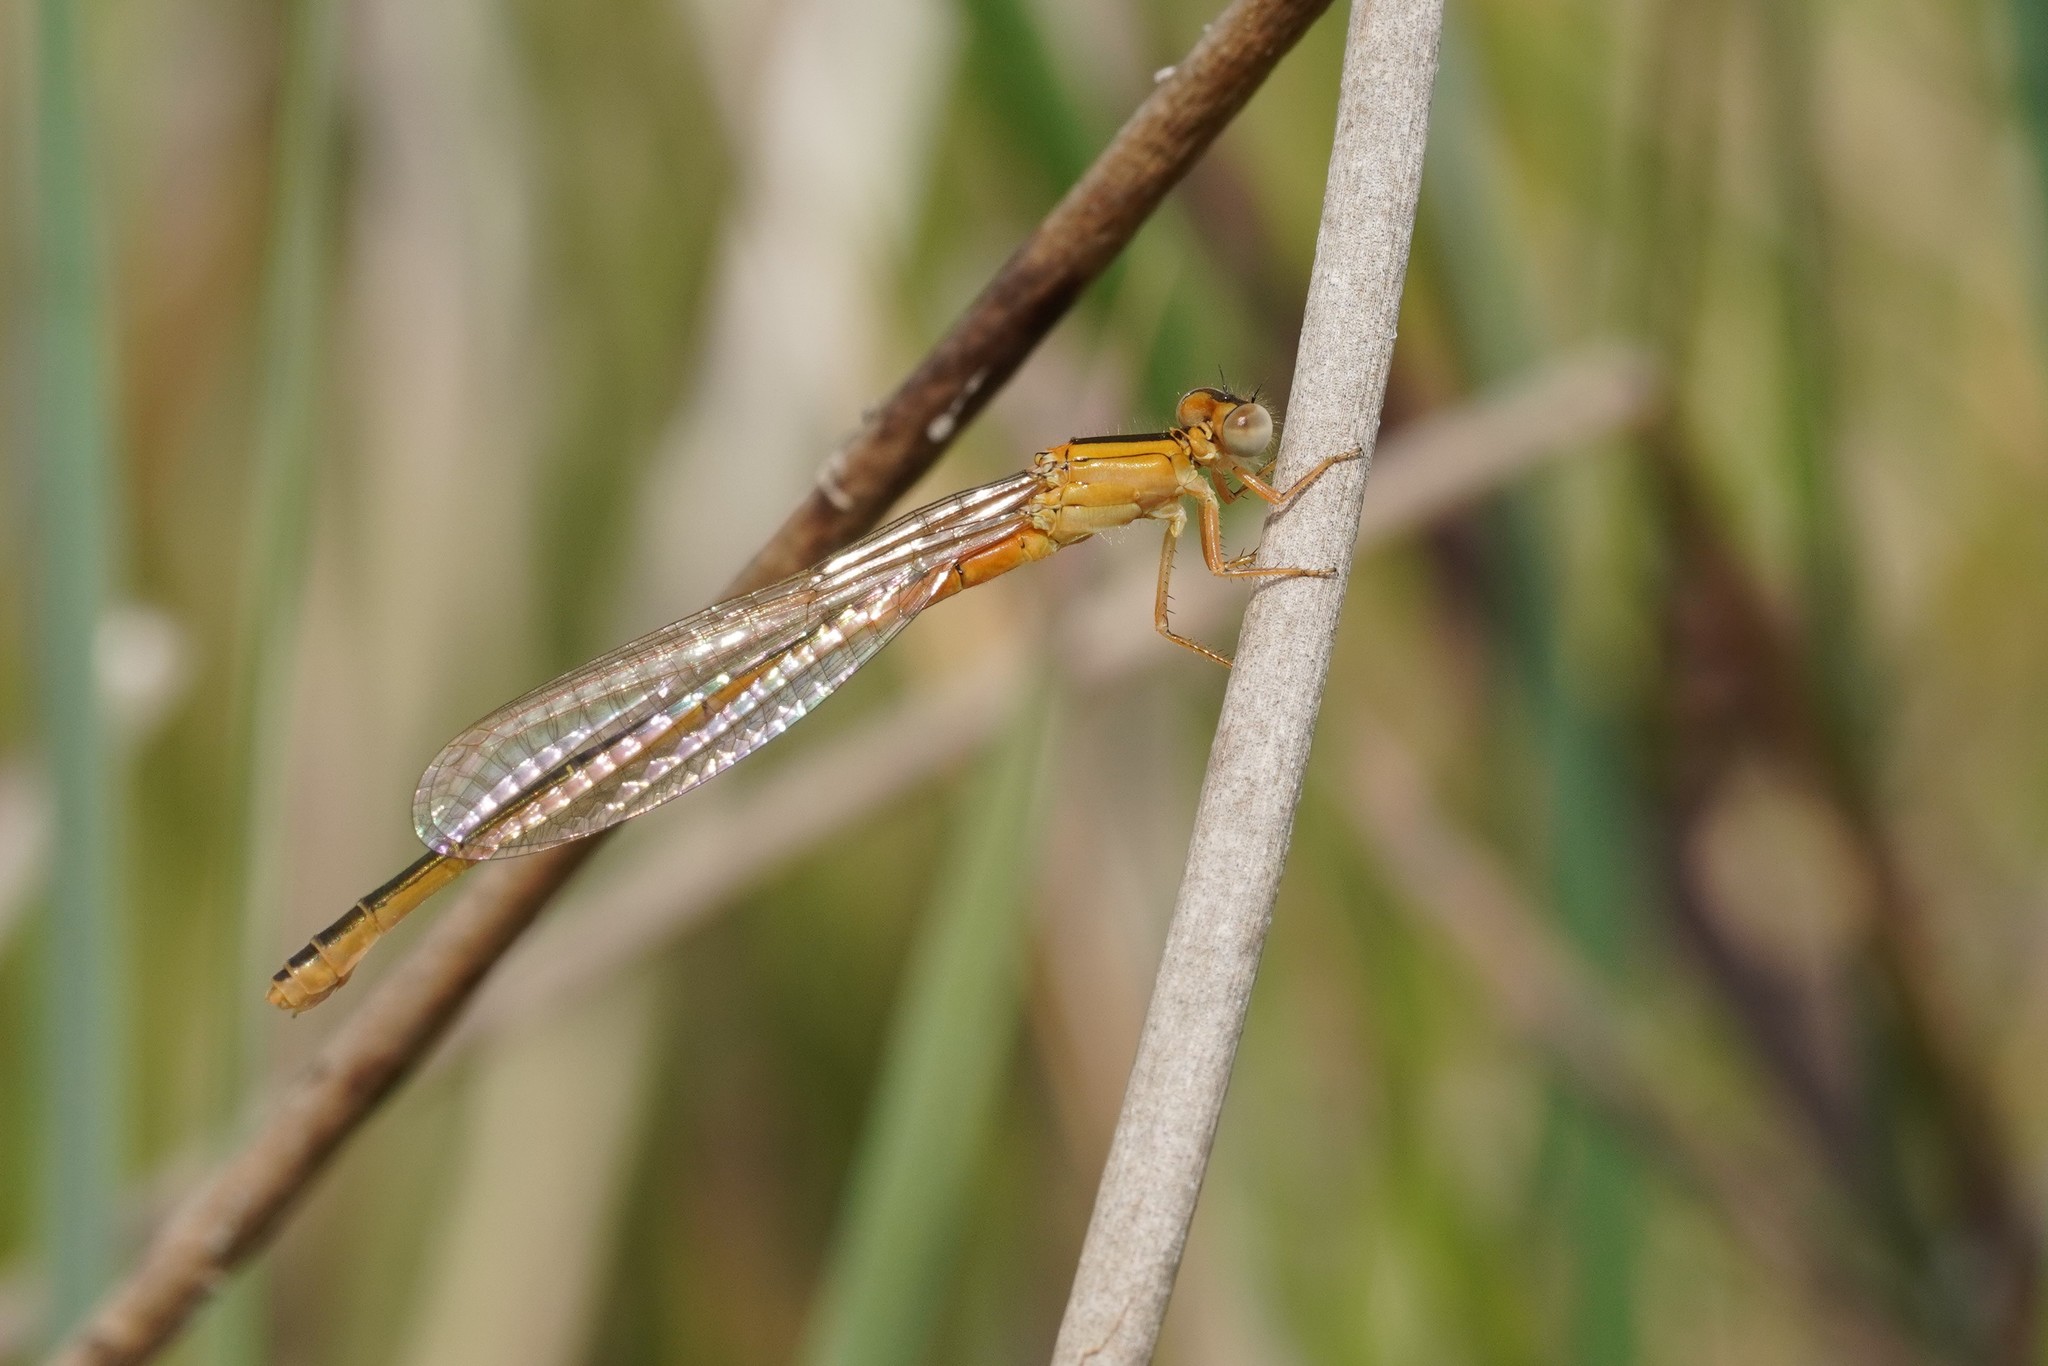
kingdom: Animalia
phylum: Arthropoda
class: Insecta
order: Odonata
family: Coenagrionidae
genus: Ischnura
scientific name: Ischnura pumilio
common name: Scarce blue-tailed damselfly
